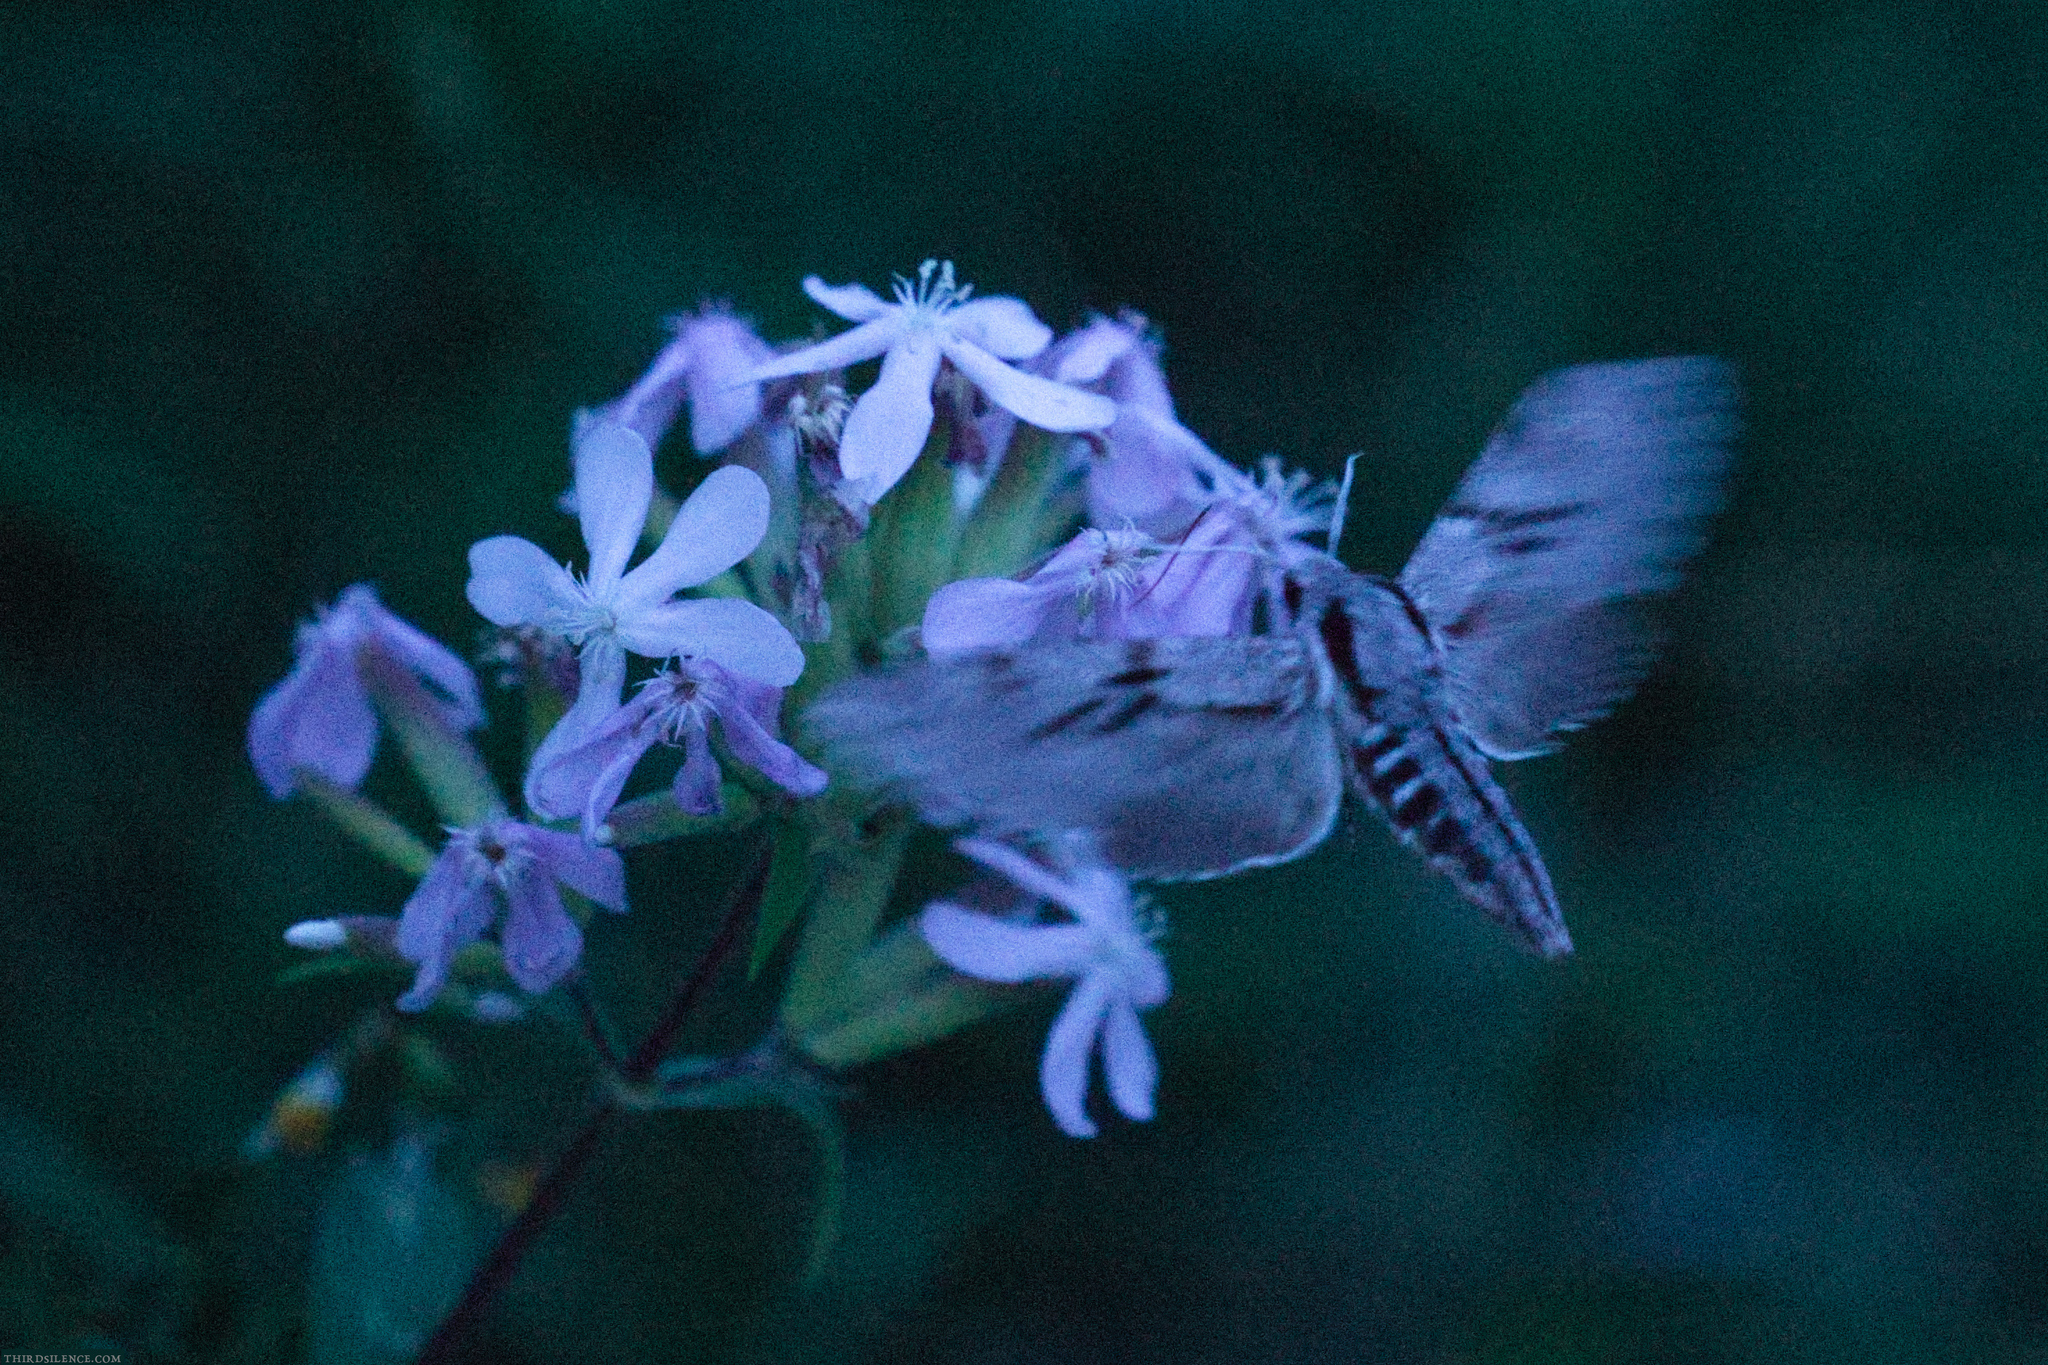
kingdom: Animalia
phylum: Arthropoda
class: Insecta
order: Lepidoptera
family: Sphingidae
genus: Sphinx
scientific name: Sphinx pinastri
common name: Pine hawk-moth
